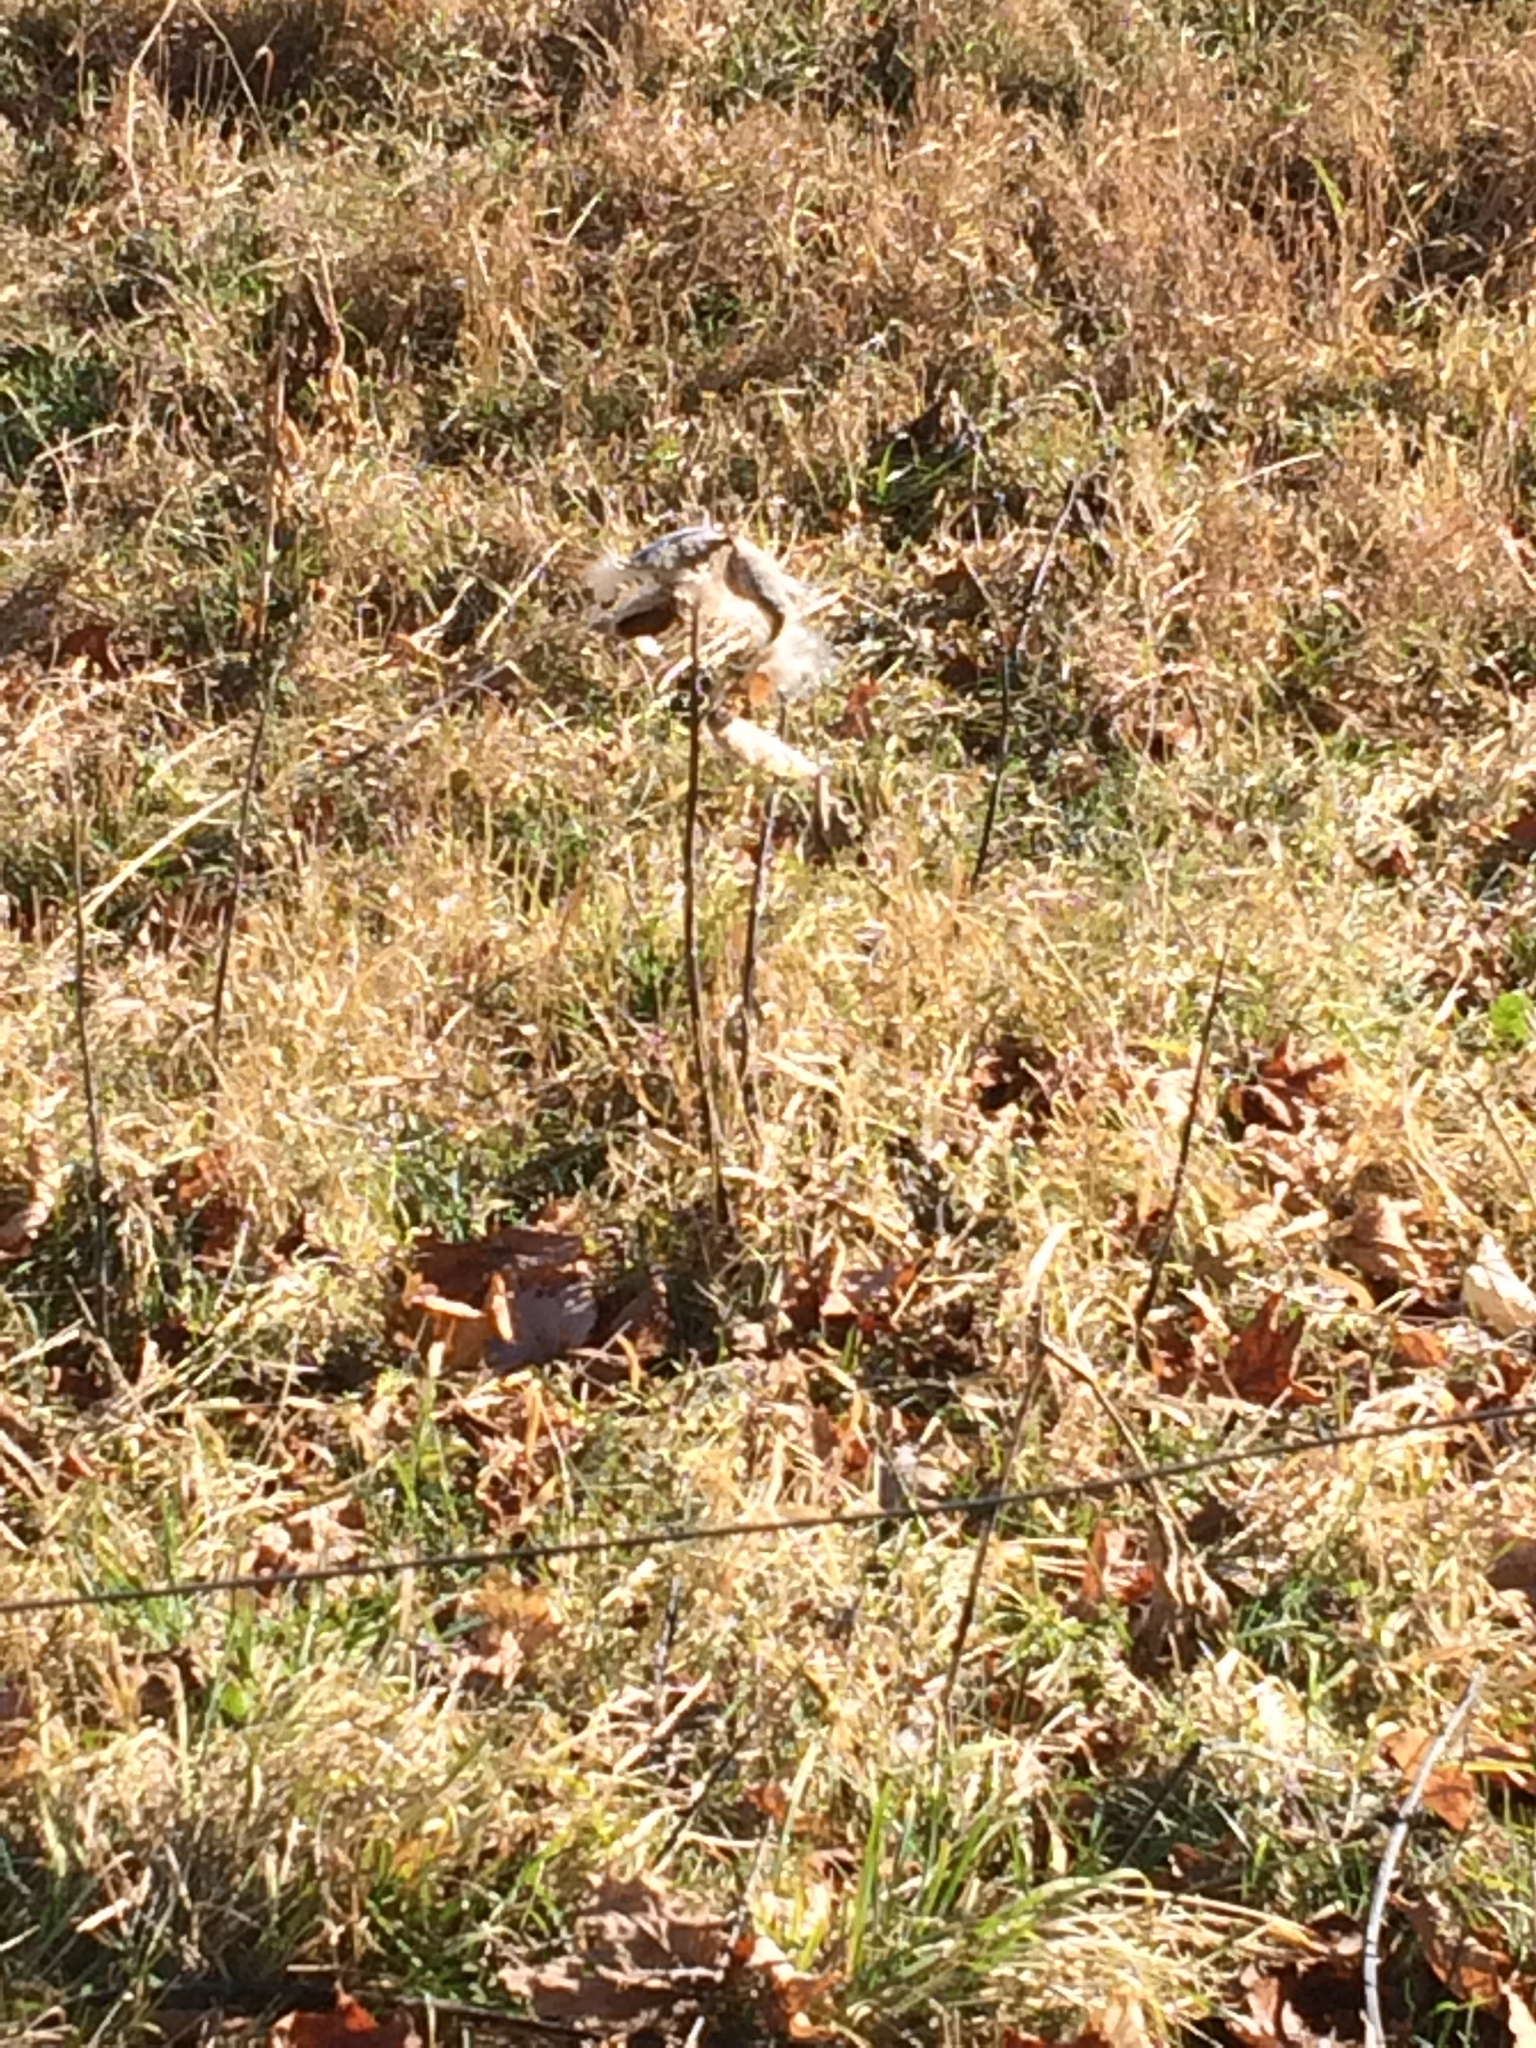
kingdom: Plantae
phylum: Tracheophyta
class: Magnoliopsida
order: Gentianales
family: Apocynaceae
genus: Asclepias
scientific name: Asclepias syriaca
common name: Common milkweed
